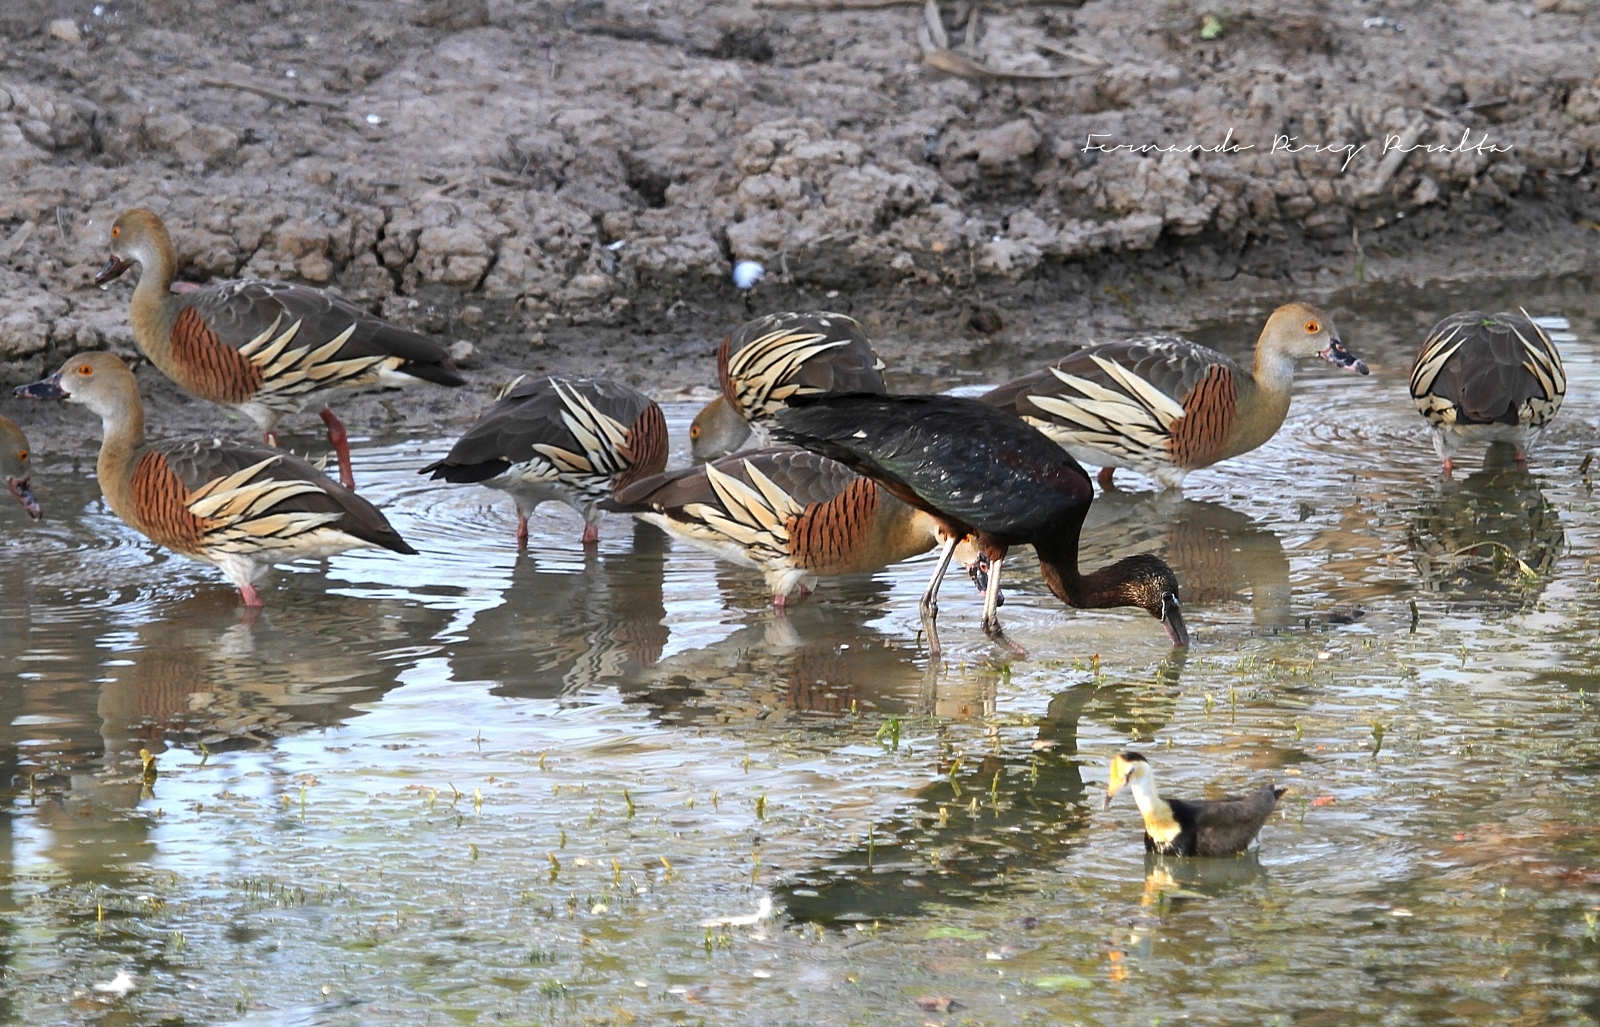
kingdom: Animalia
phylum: Chordata
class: Aves
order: Anseriformes
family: Anatidae
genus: Dendrocygna
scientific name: Dendrocygna eytoni
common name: Plumed whistling-duck
